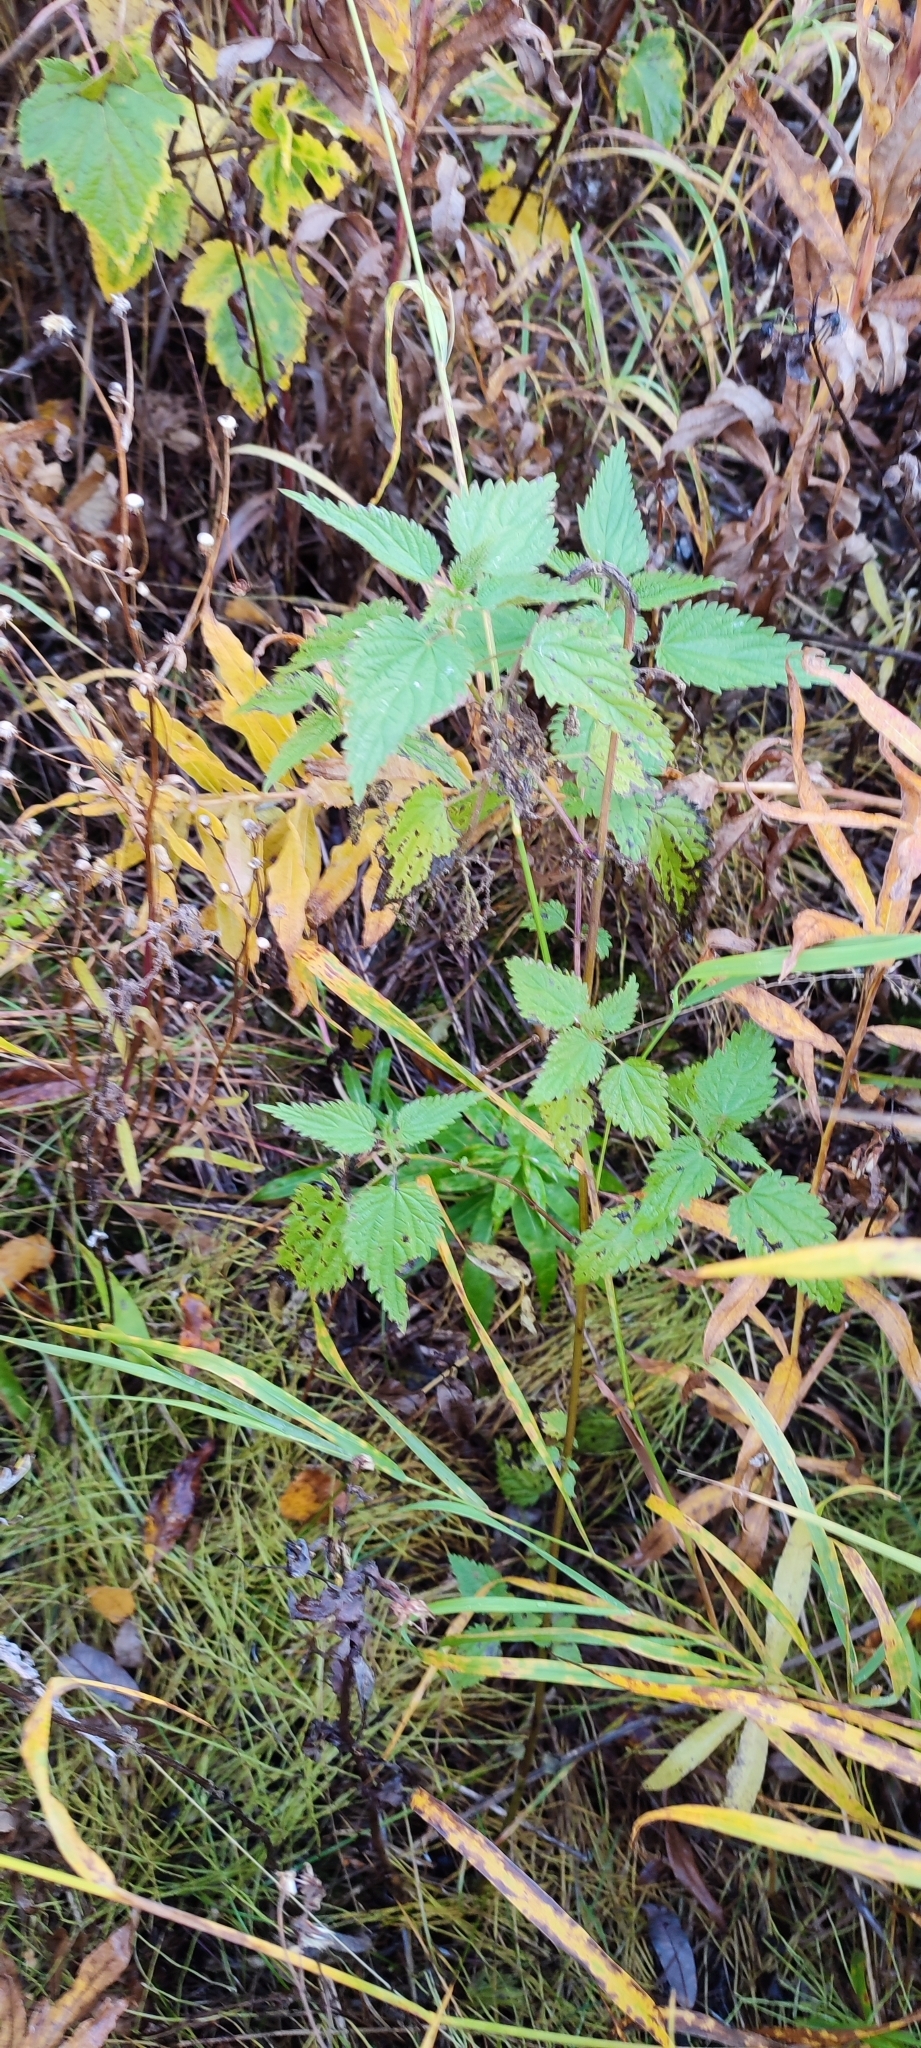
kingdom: Plantae
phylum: Tracheophyta
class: Magnoliopsida
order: Rosales
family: Urticaceae
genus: Urtica
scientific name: Urtica dioica
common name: Common nettle
